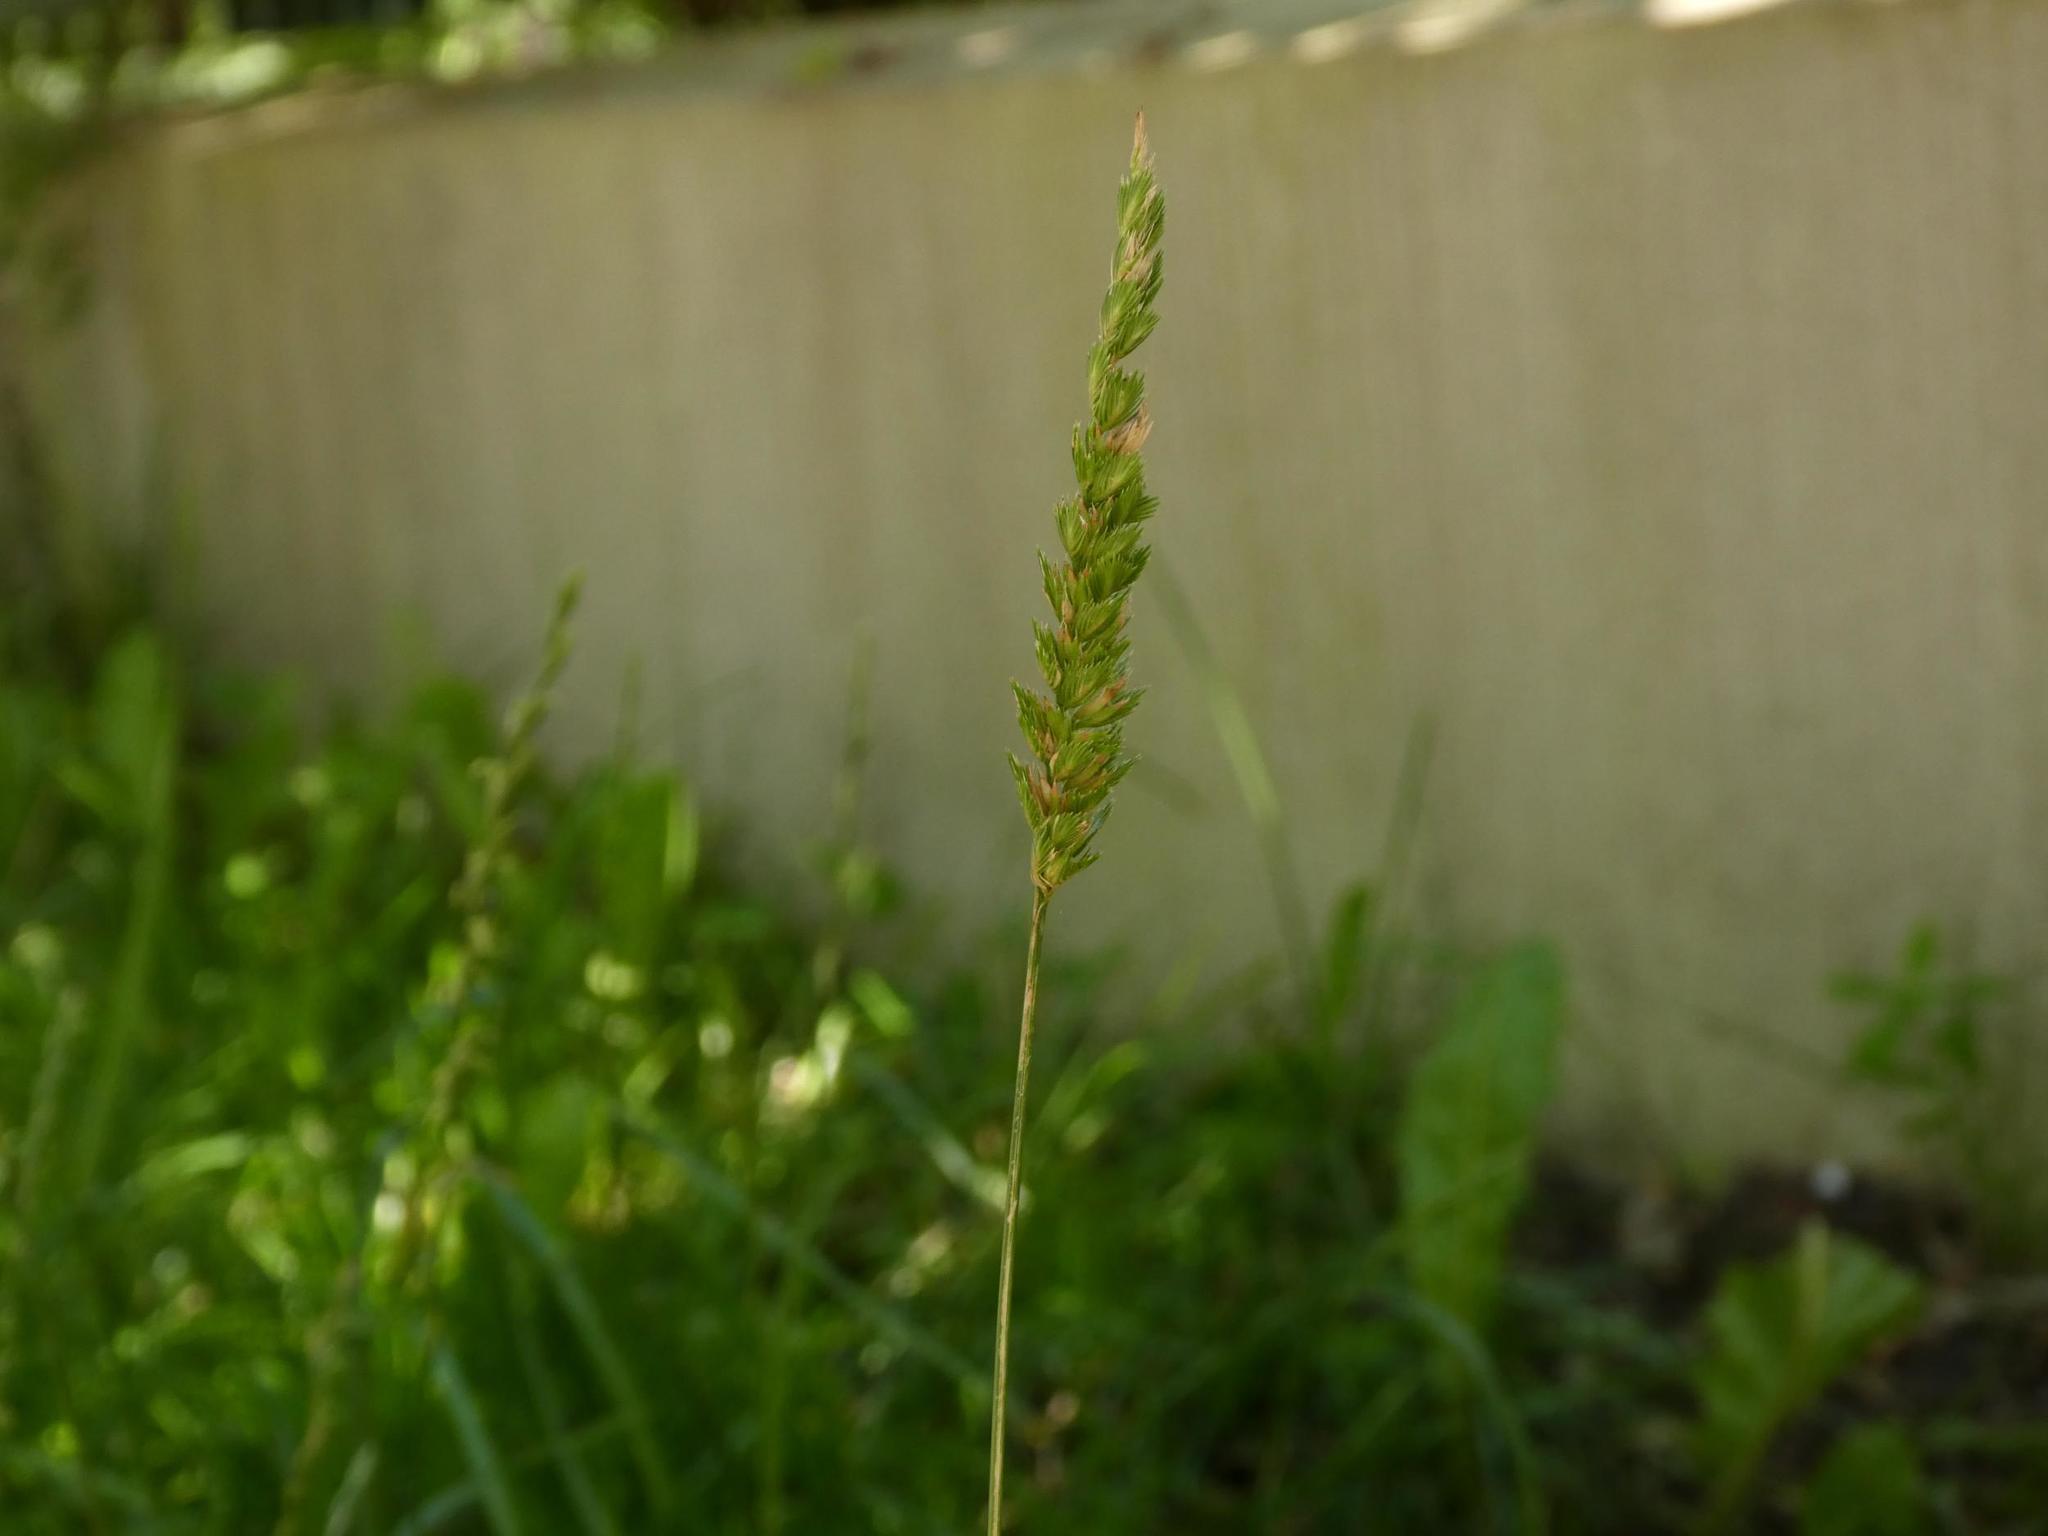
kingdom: Plantae
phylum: Tracheophyta
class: Liliopsida
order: Poales
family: Poaceae
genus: Cynosurus
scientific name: Cynosurus cristatus
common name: Crested dog's-tail
